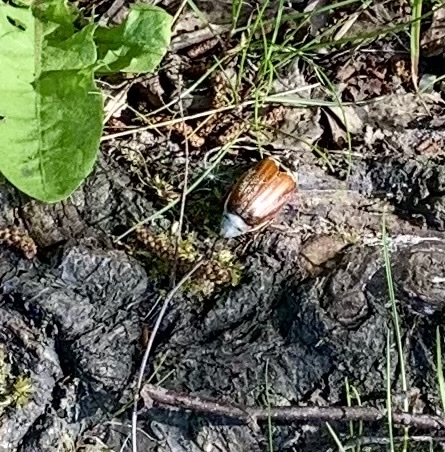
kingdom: Animalia
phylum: Arthropoda
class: Insecta
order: Coleoptera
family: Scarabaeidae
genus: Melolontha
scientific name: Melolontha melolontha
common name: Cockchafer maybeetle
